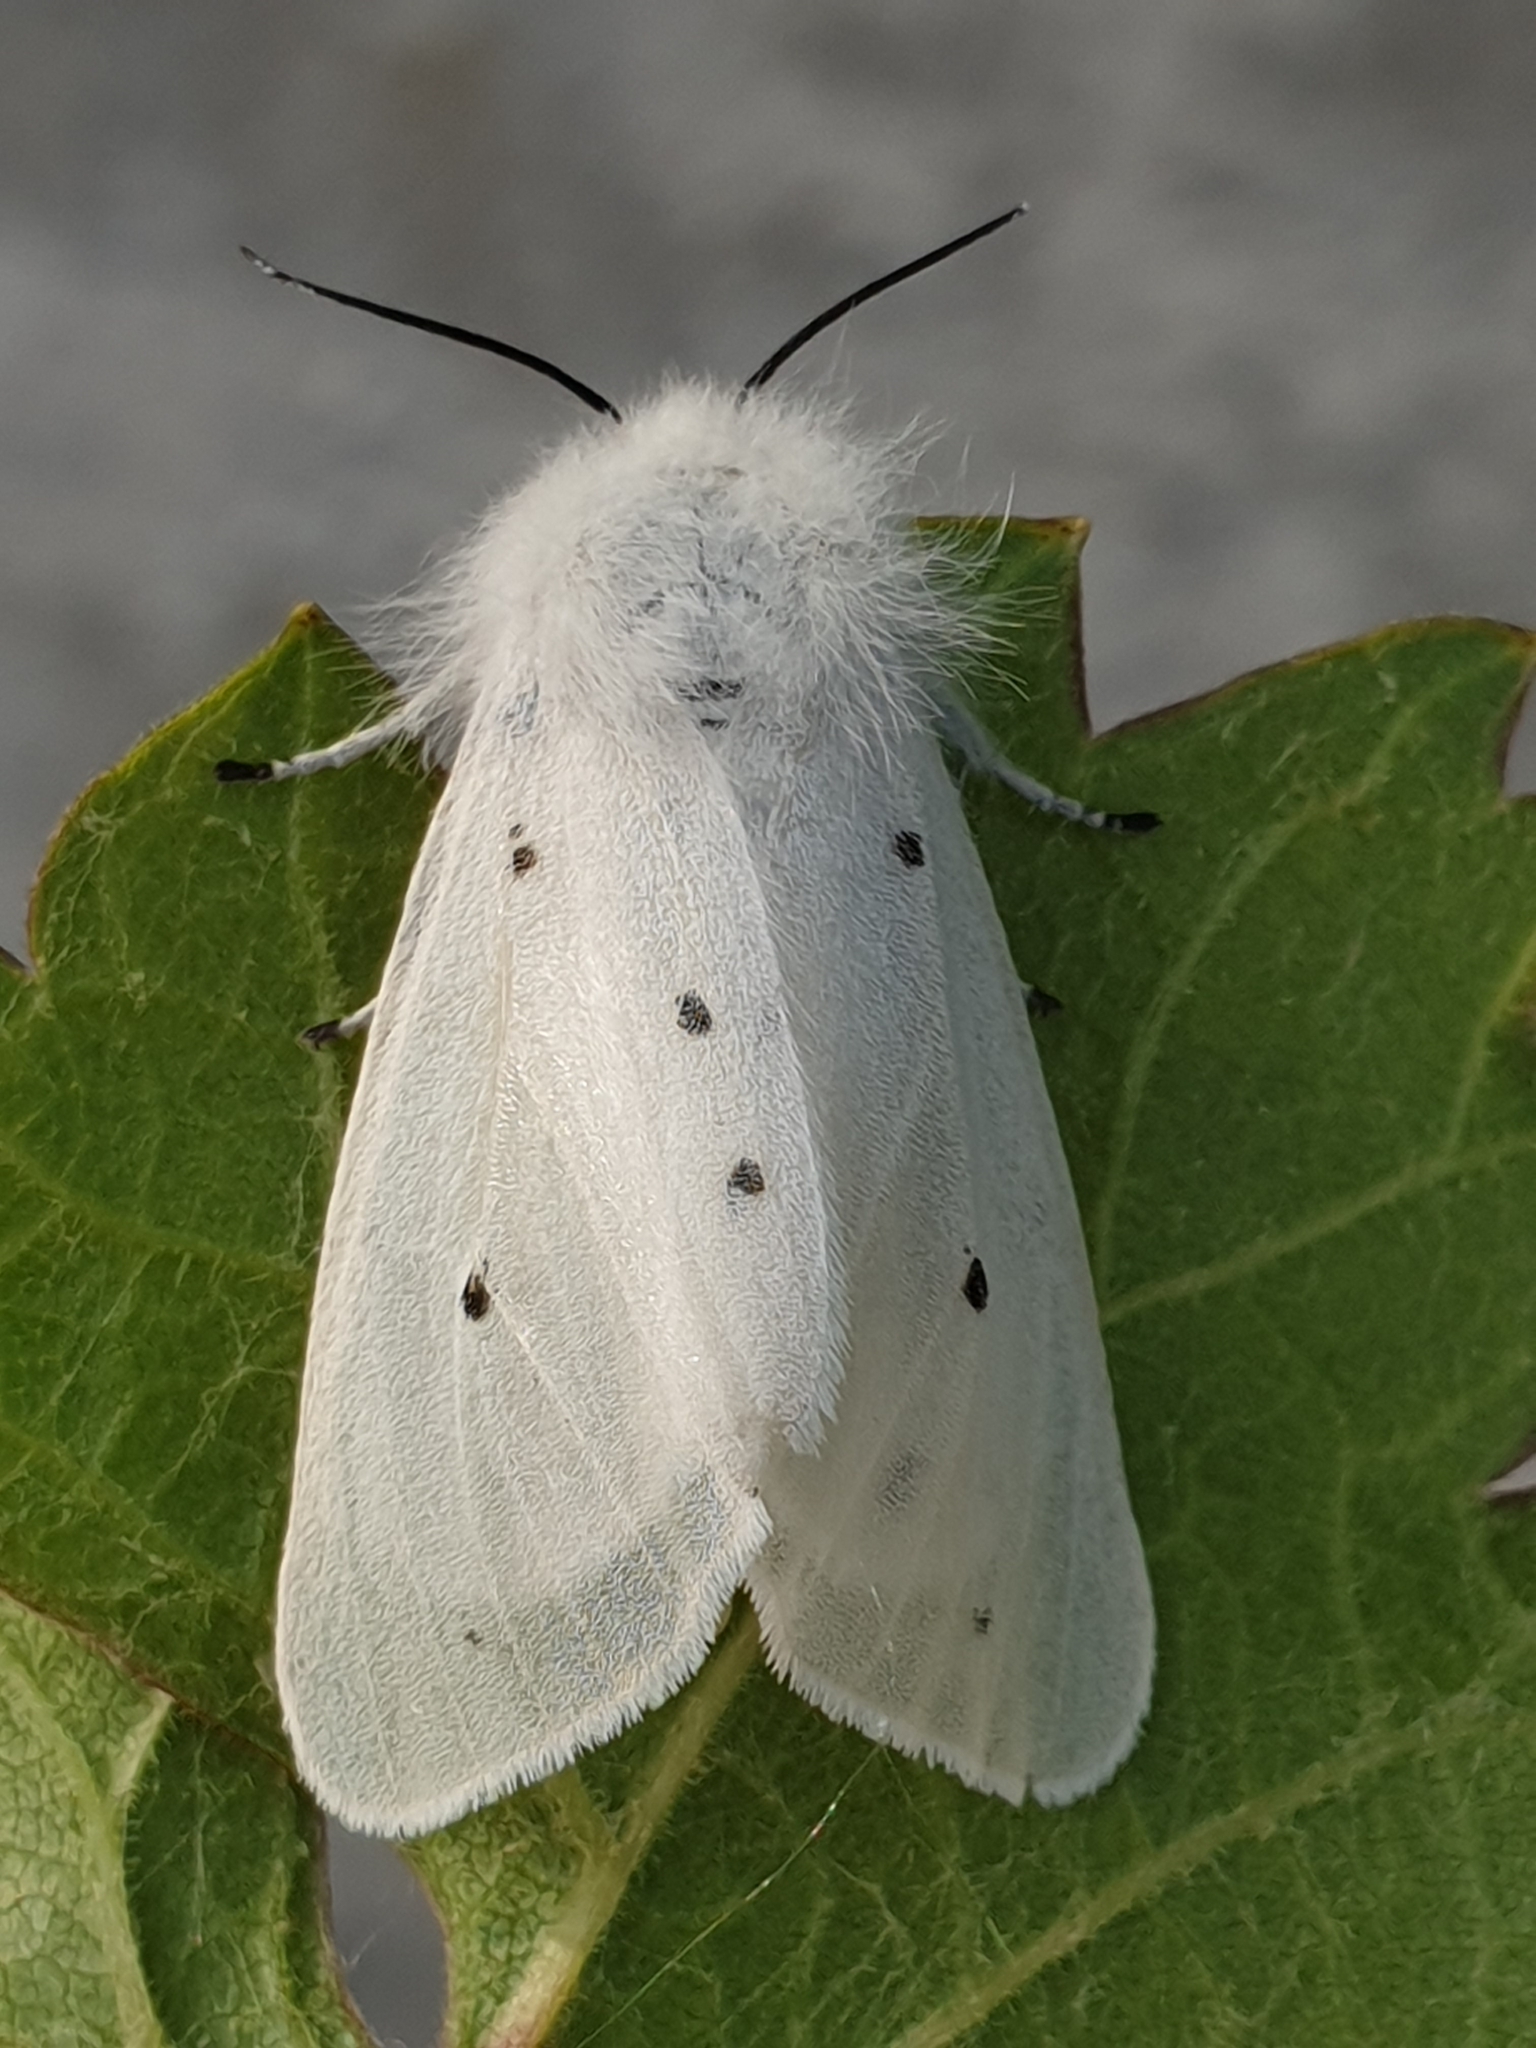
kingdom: Animalia
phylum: Arthropoda
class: Insecta
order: Lepidoptera
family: Erebidae
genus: Diaphora
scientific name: Diaphora mendica
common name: Muslin moth
